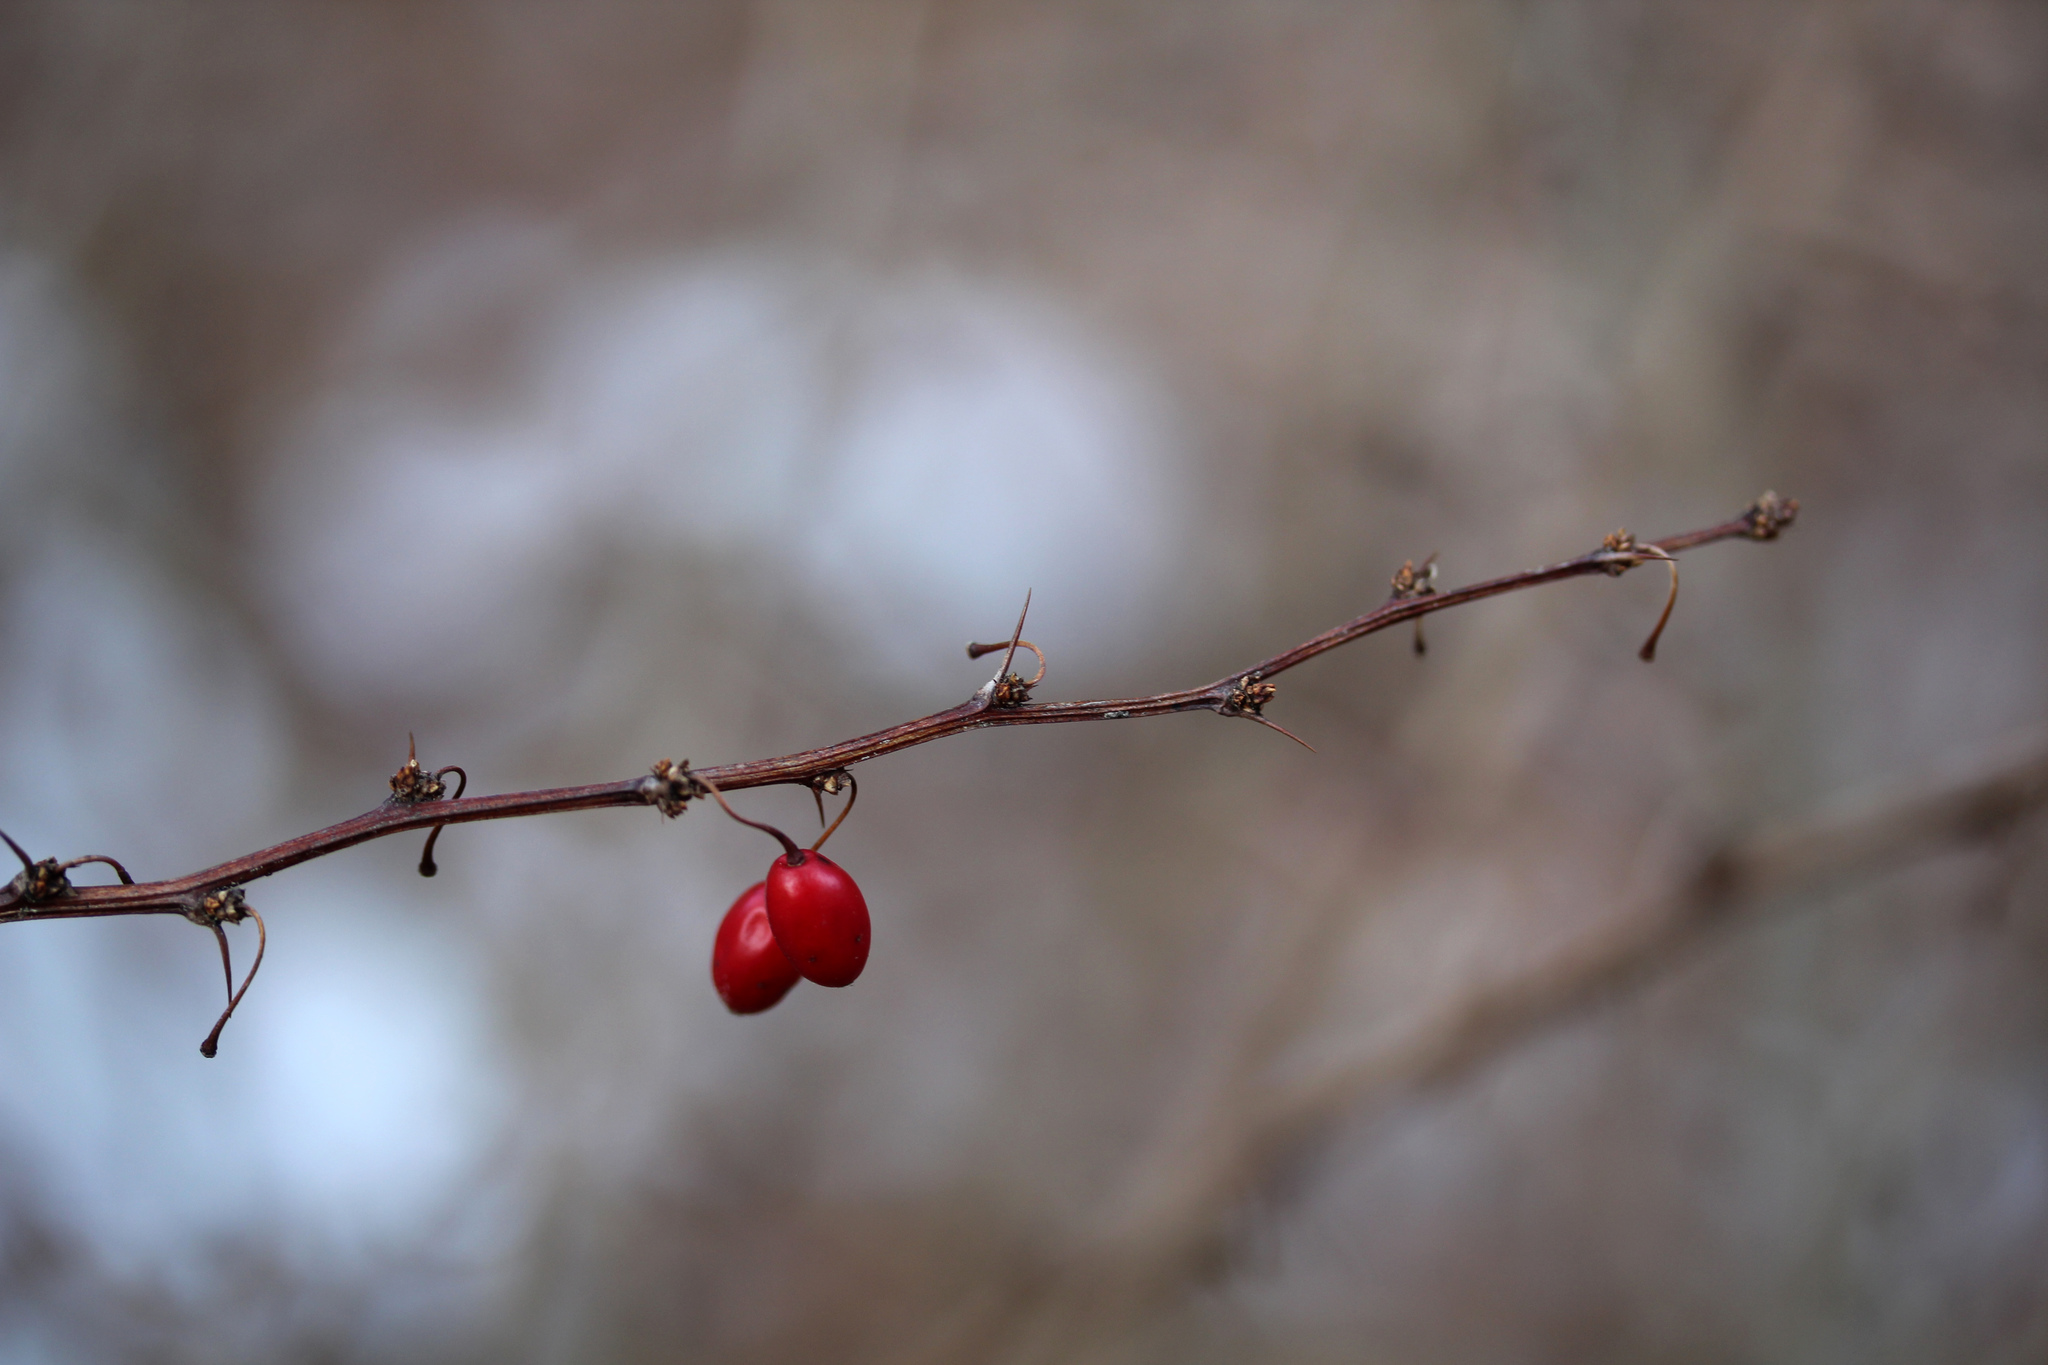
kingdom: Plantae
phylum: Tracheophyta
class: Magnoliopsida
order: Ranunculales
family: Berberidaceae
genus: Berberis
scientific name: Berberis thunbergii
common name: Japanese barberry
